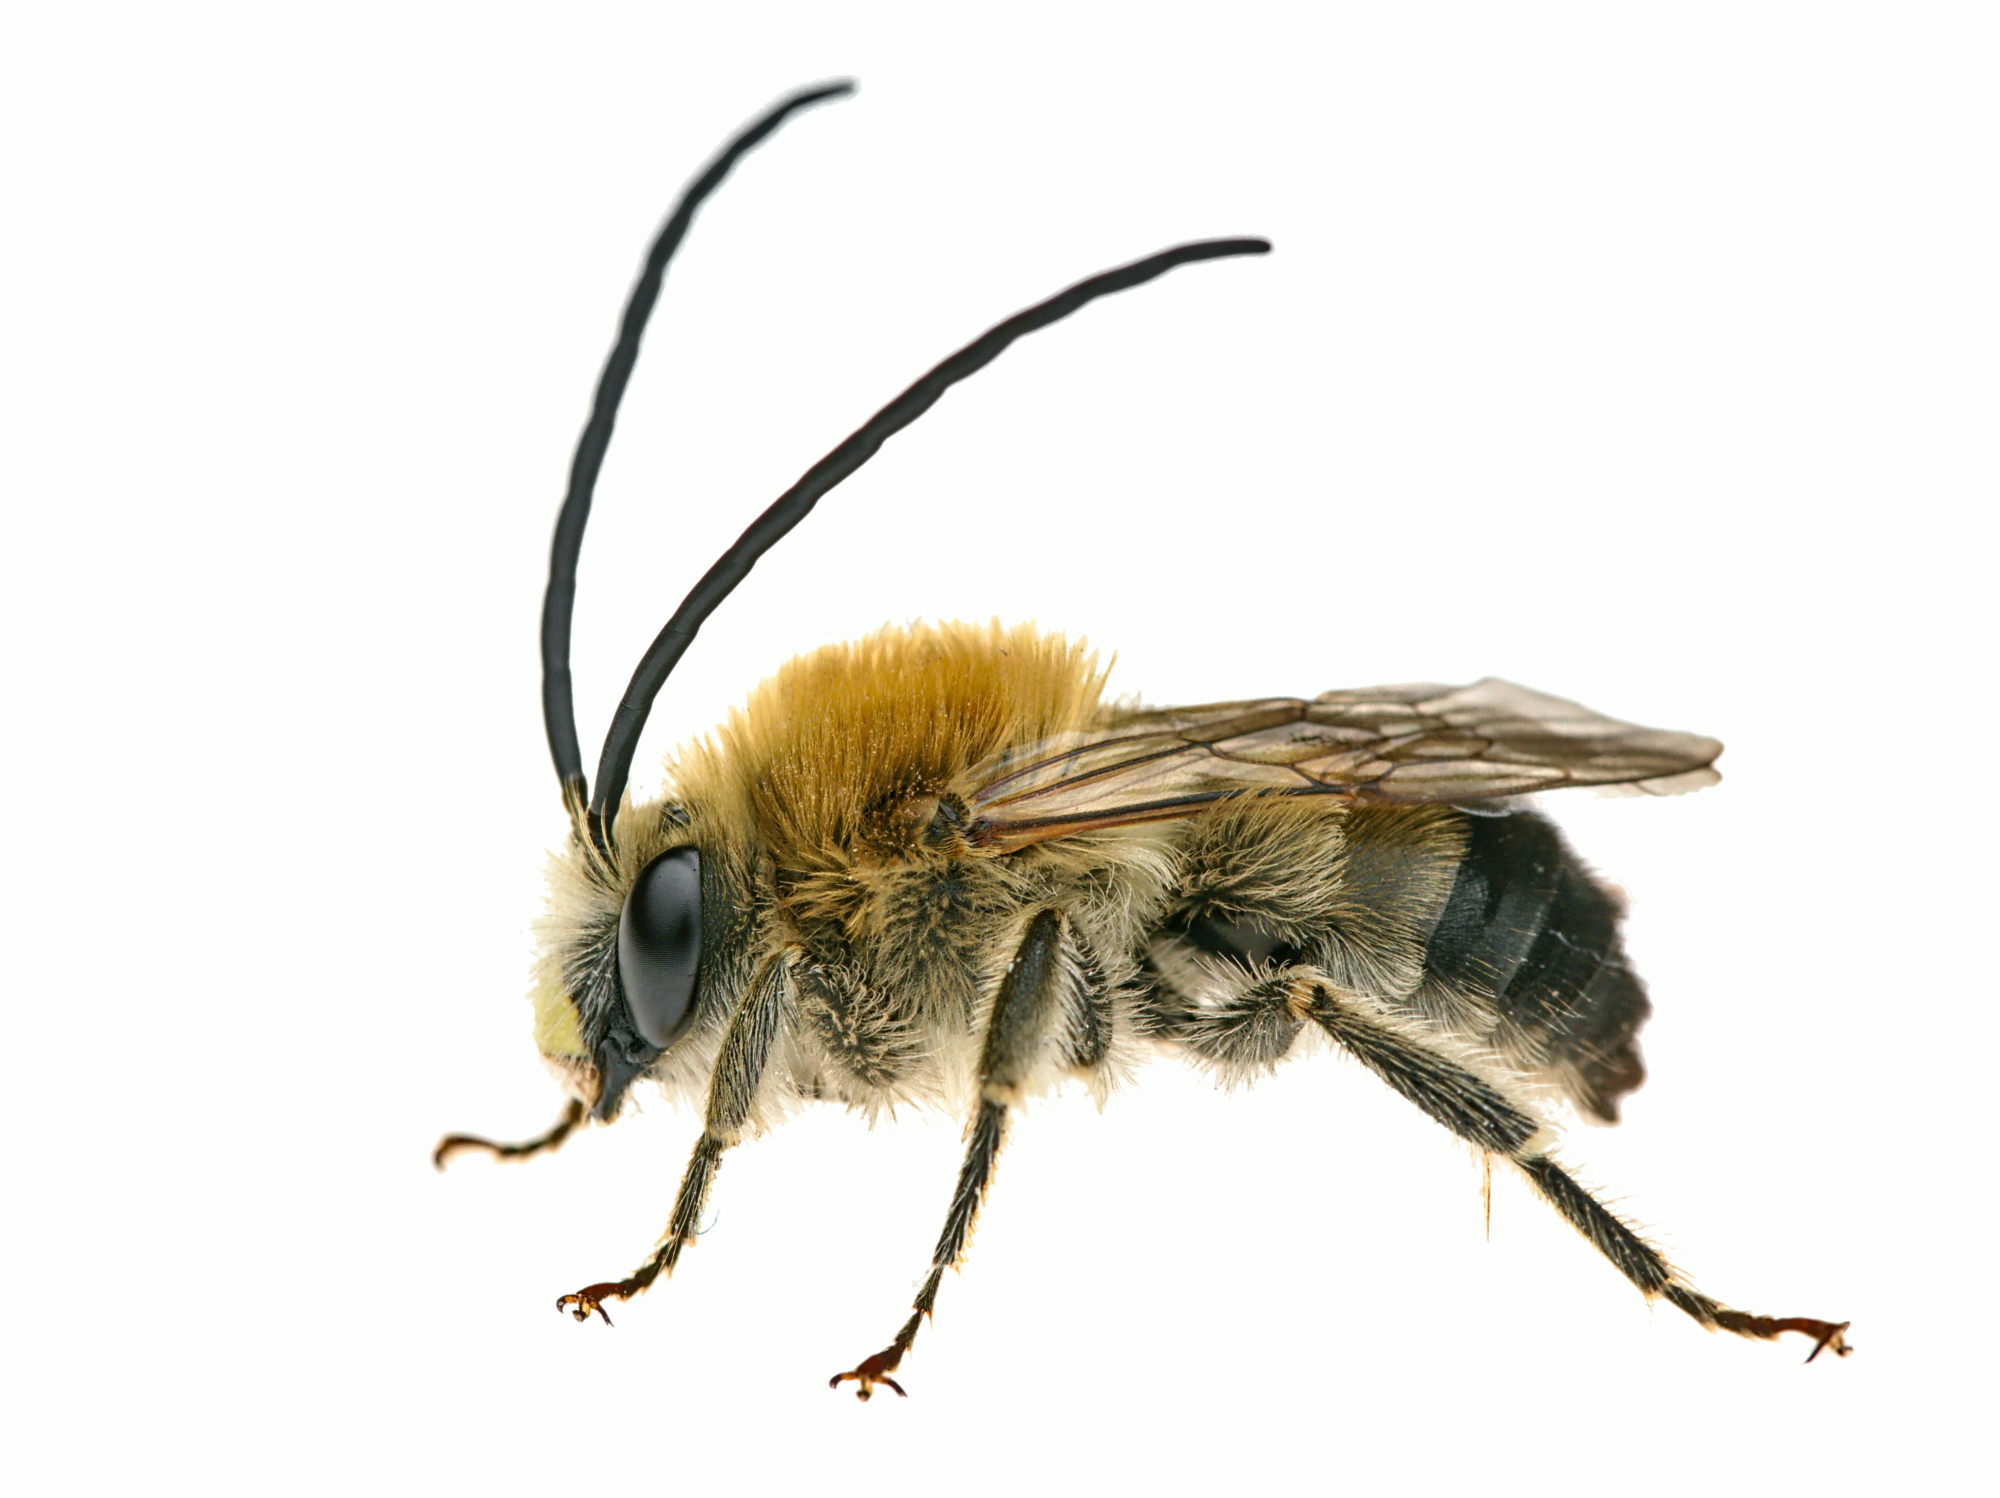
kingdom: Animalia
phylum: Arthropoda
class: Insecta
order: Hymenoptera
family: Apidae
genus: Eucera
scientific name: Eucera nigrescens
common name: Tuberculate long-horned bee
